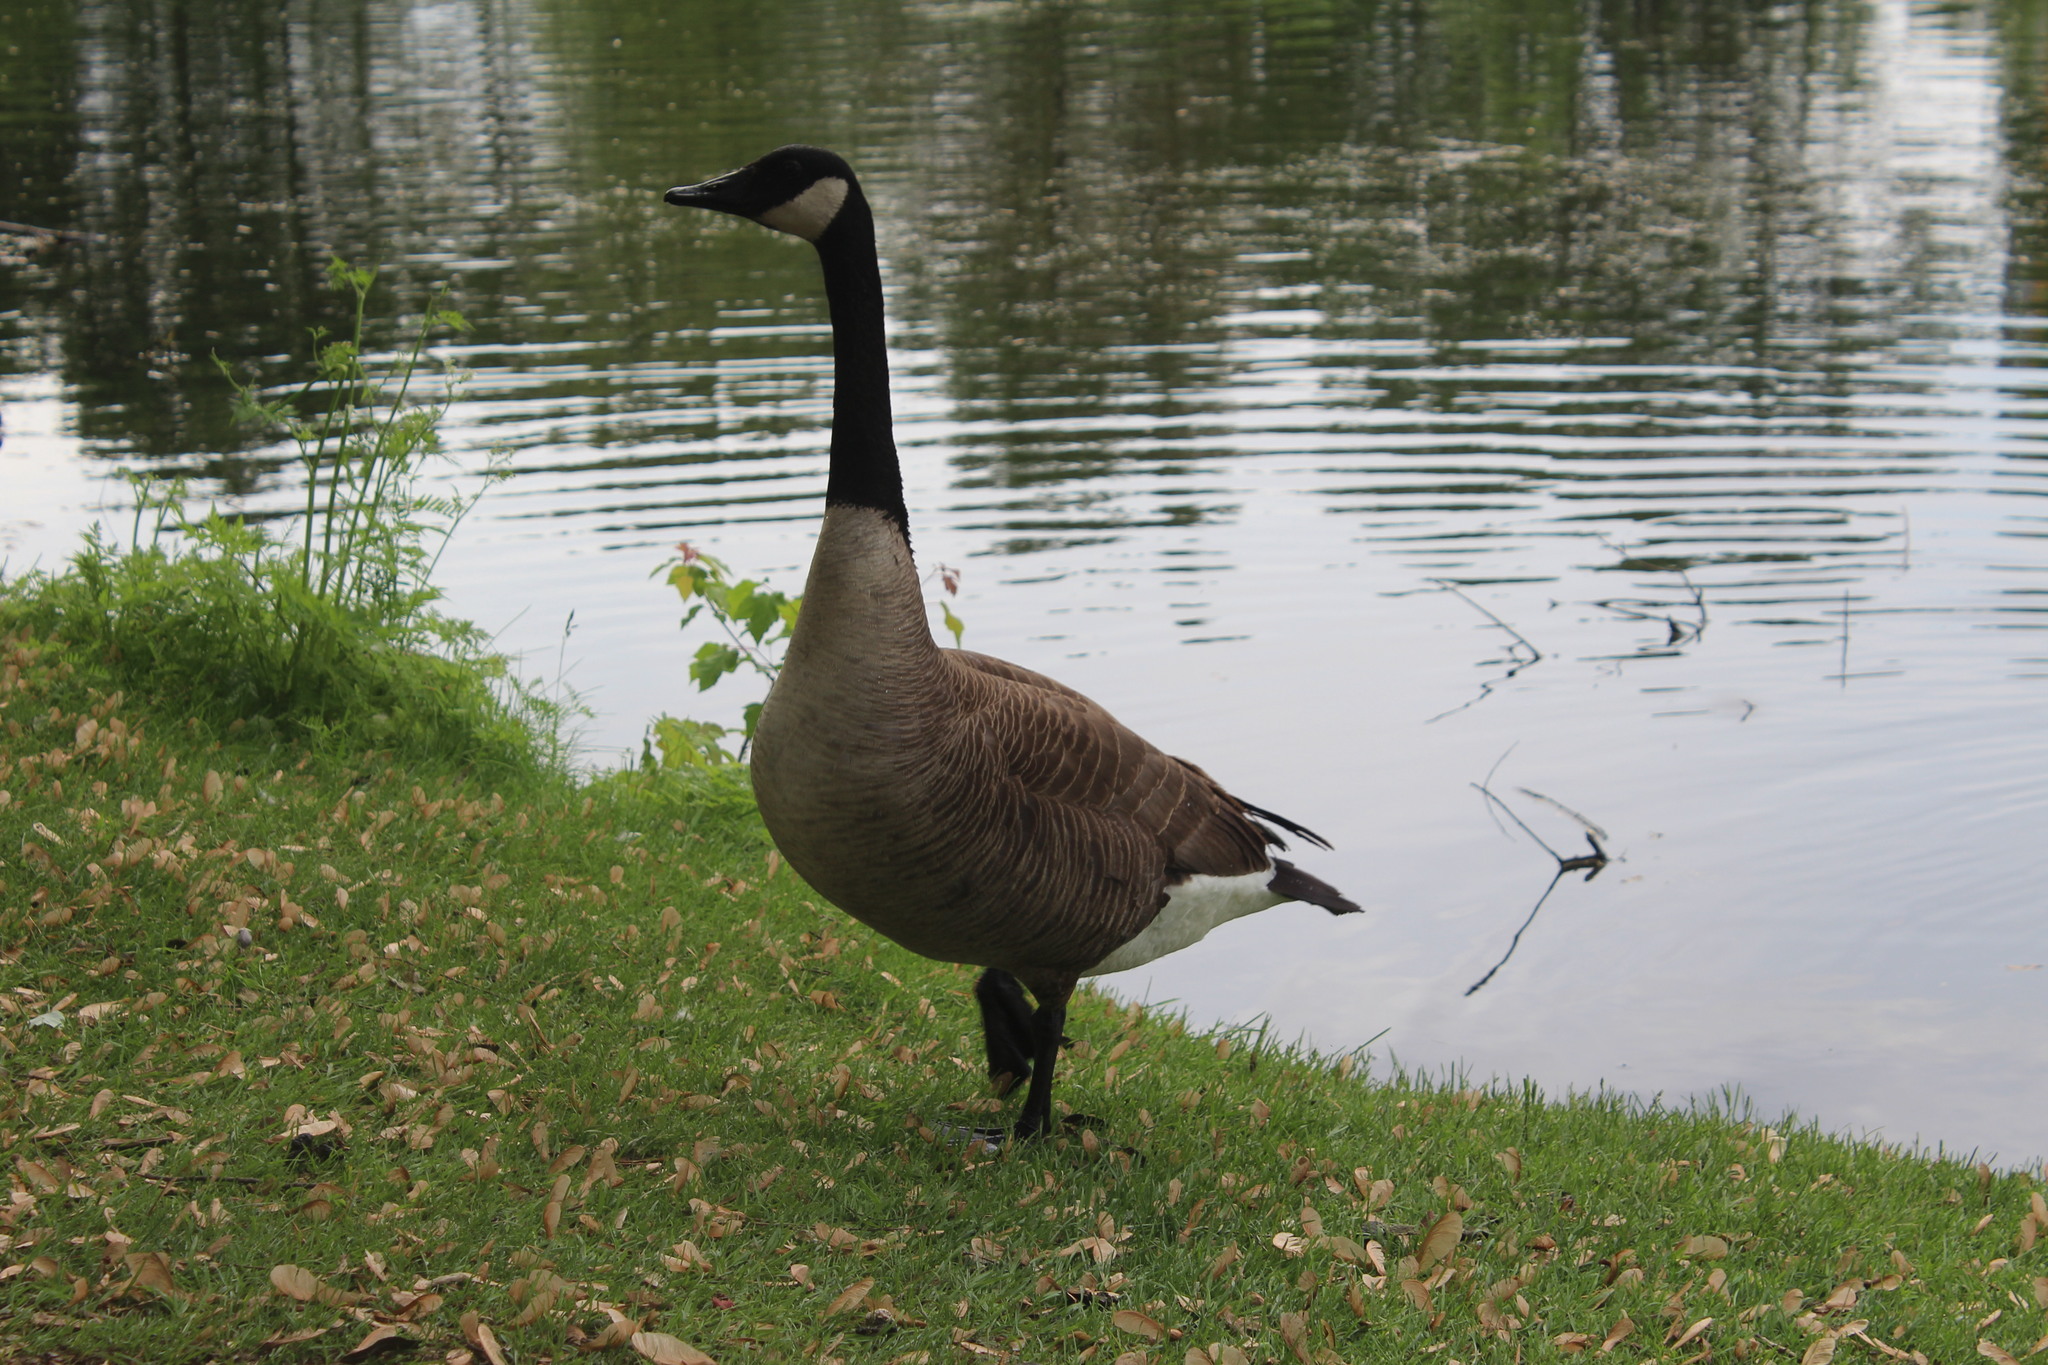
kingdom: Animalia
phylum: Chordata
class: Aves
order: Anseriformes
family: Anatidae
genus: Branta
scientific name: Branta canadensis
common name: Canada goose
